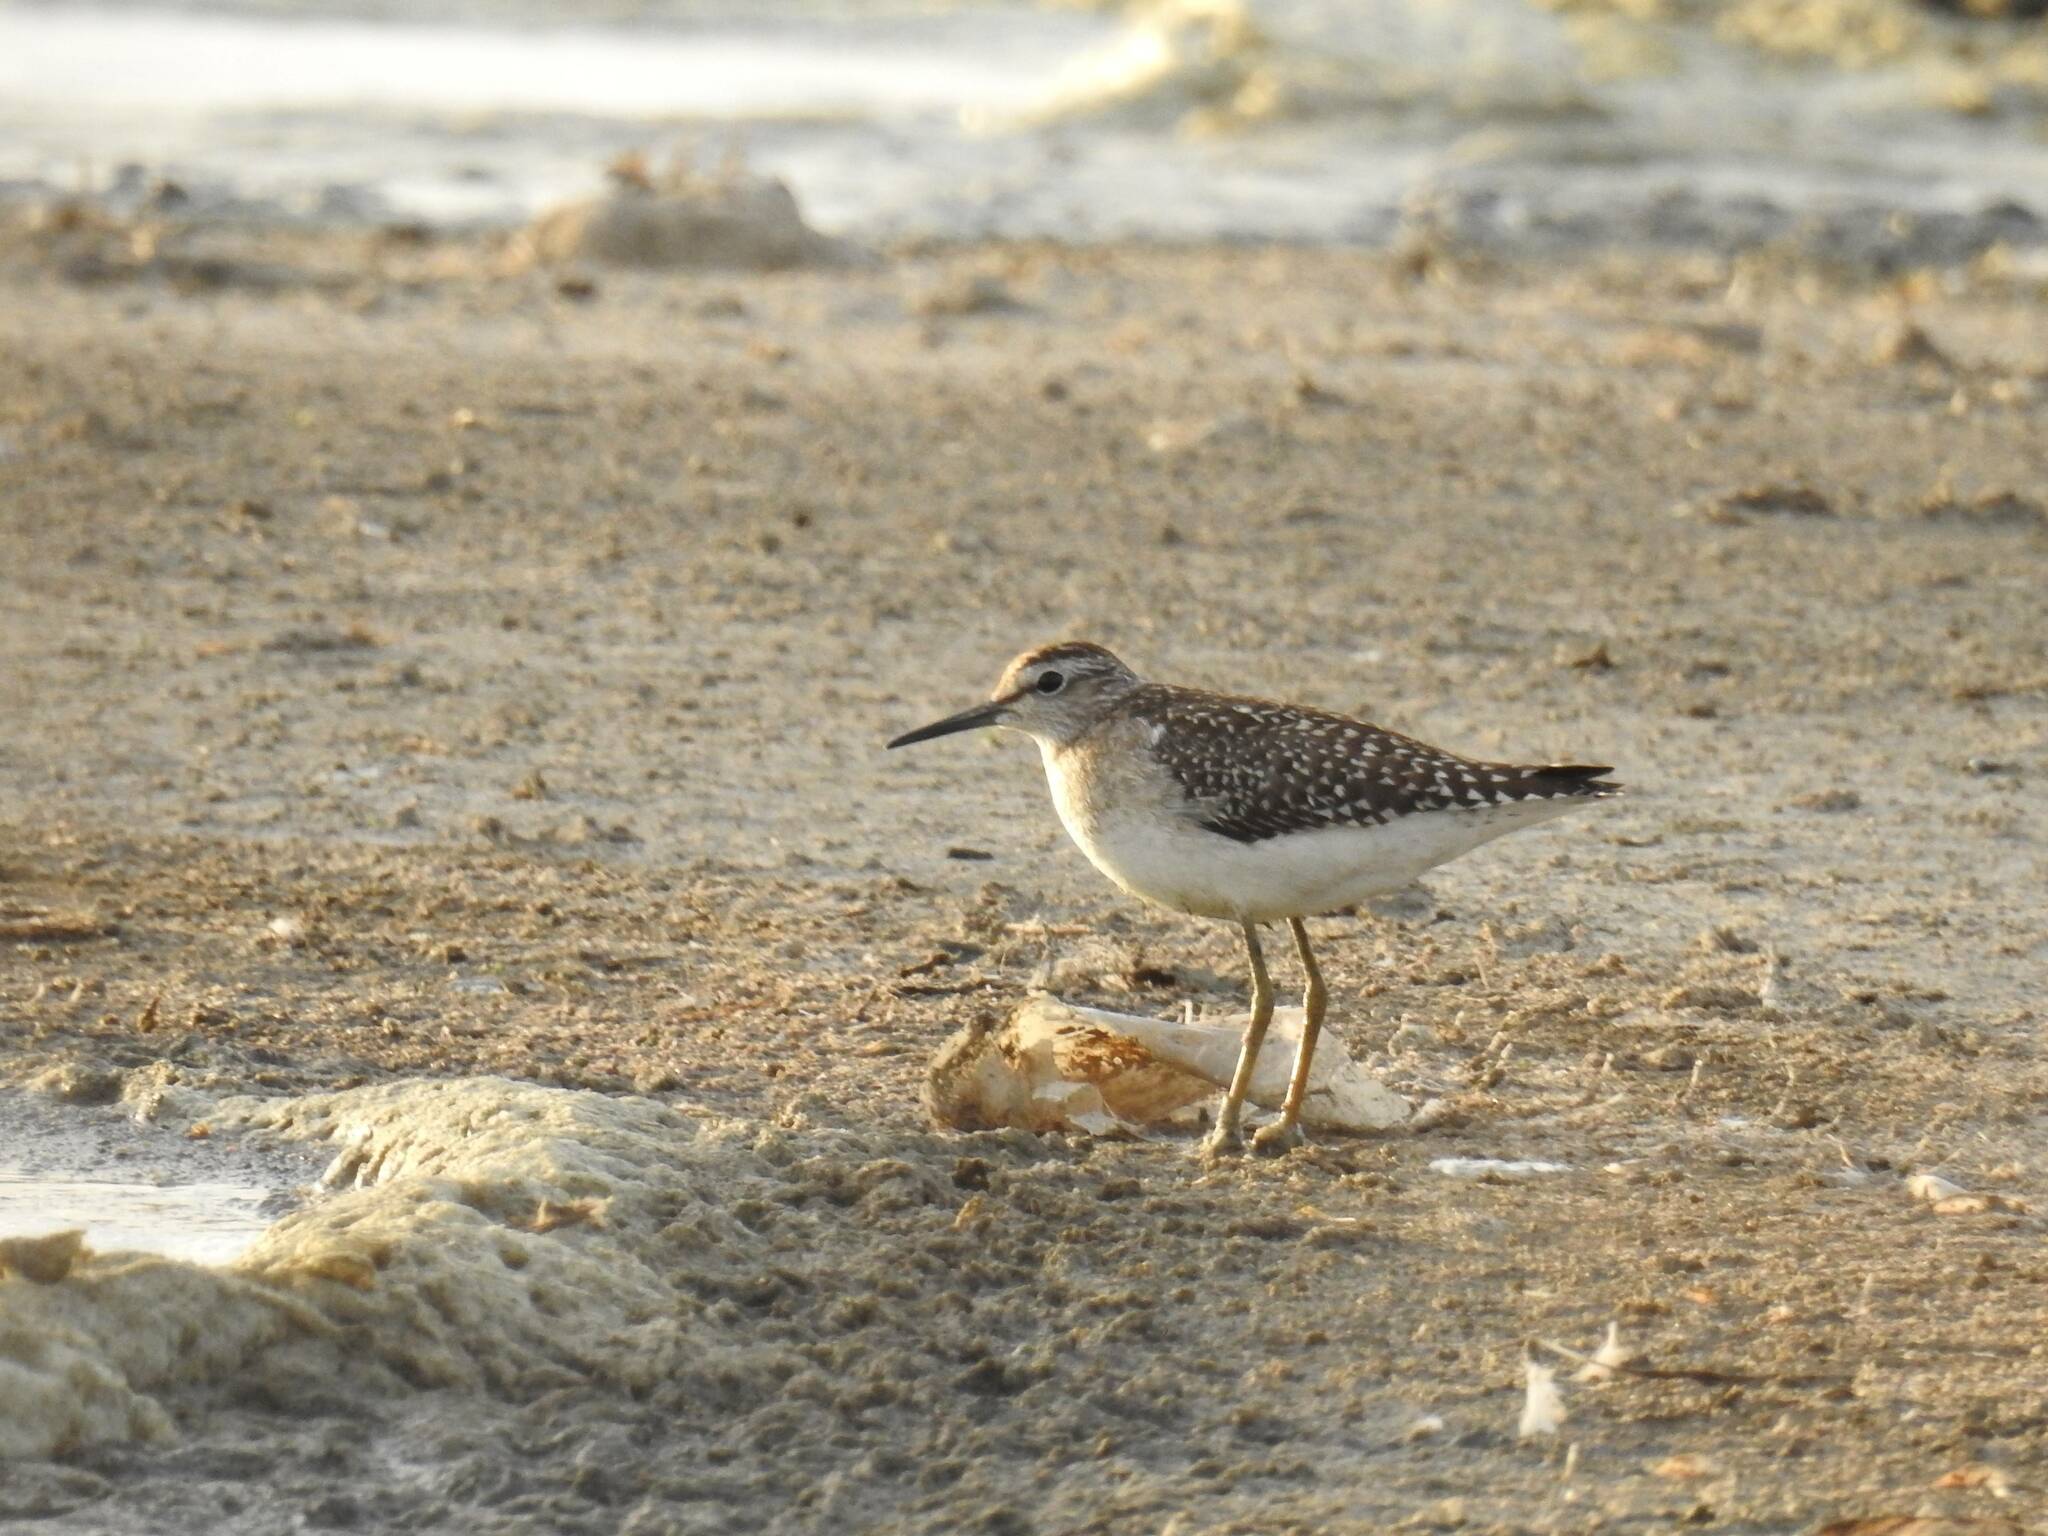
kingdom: Animalia
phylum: Chordata
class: Aves
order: Charadriiformes
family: Scolopacidae
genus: Tringa
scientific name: Tringa glareola
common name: Wood sandpiper
